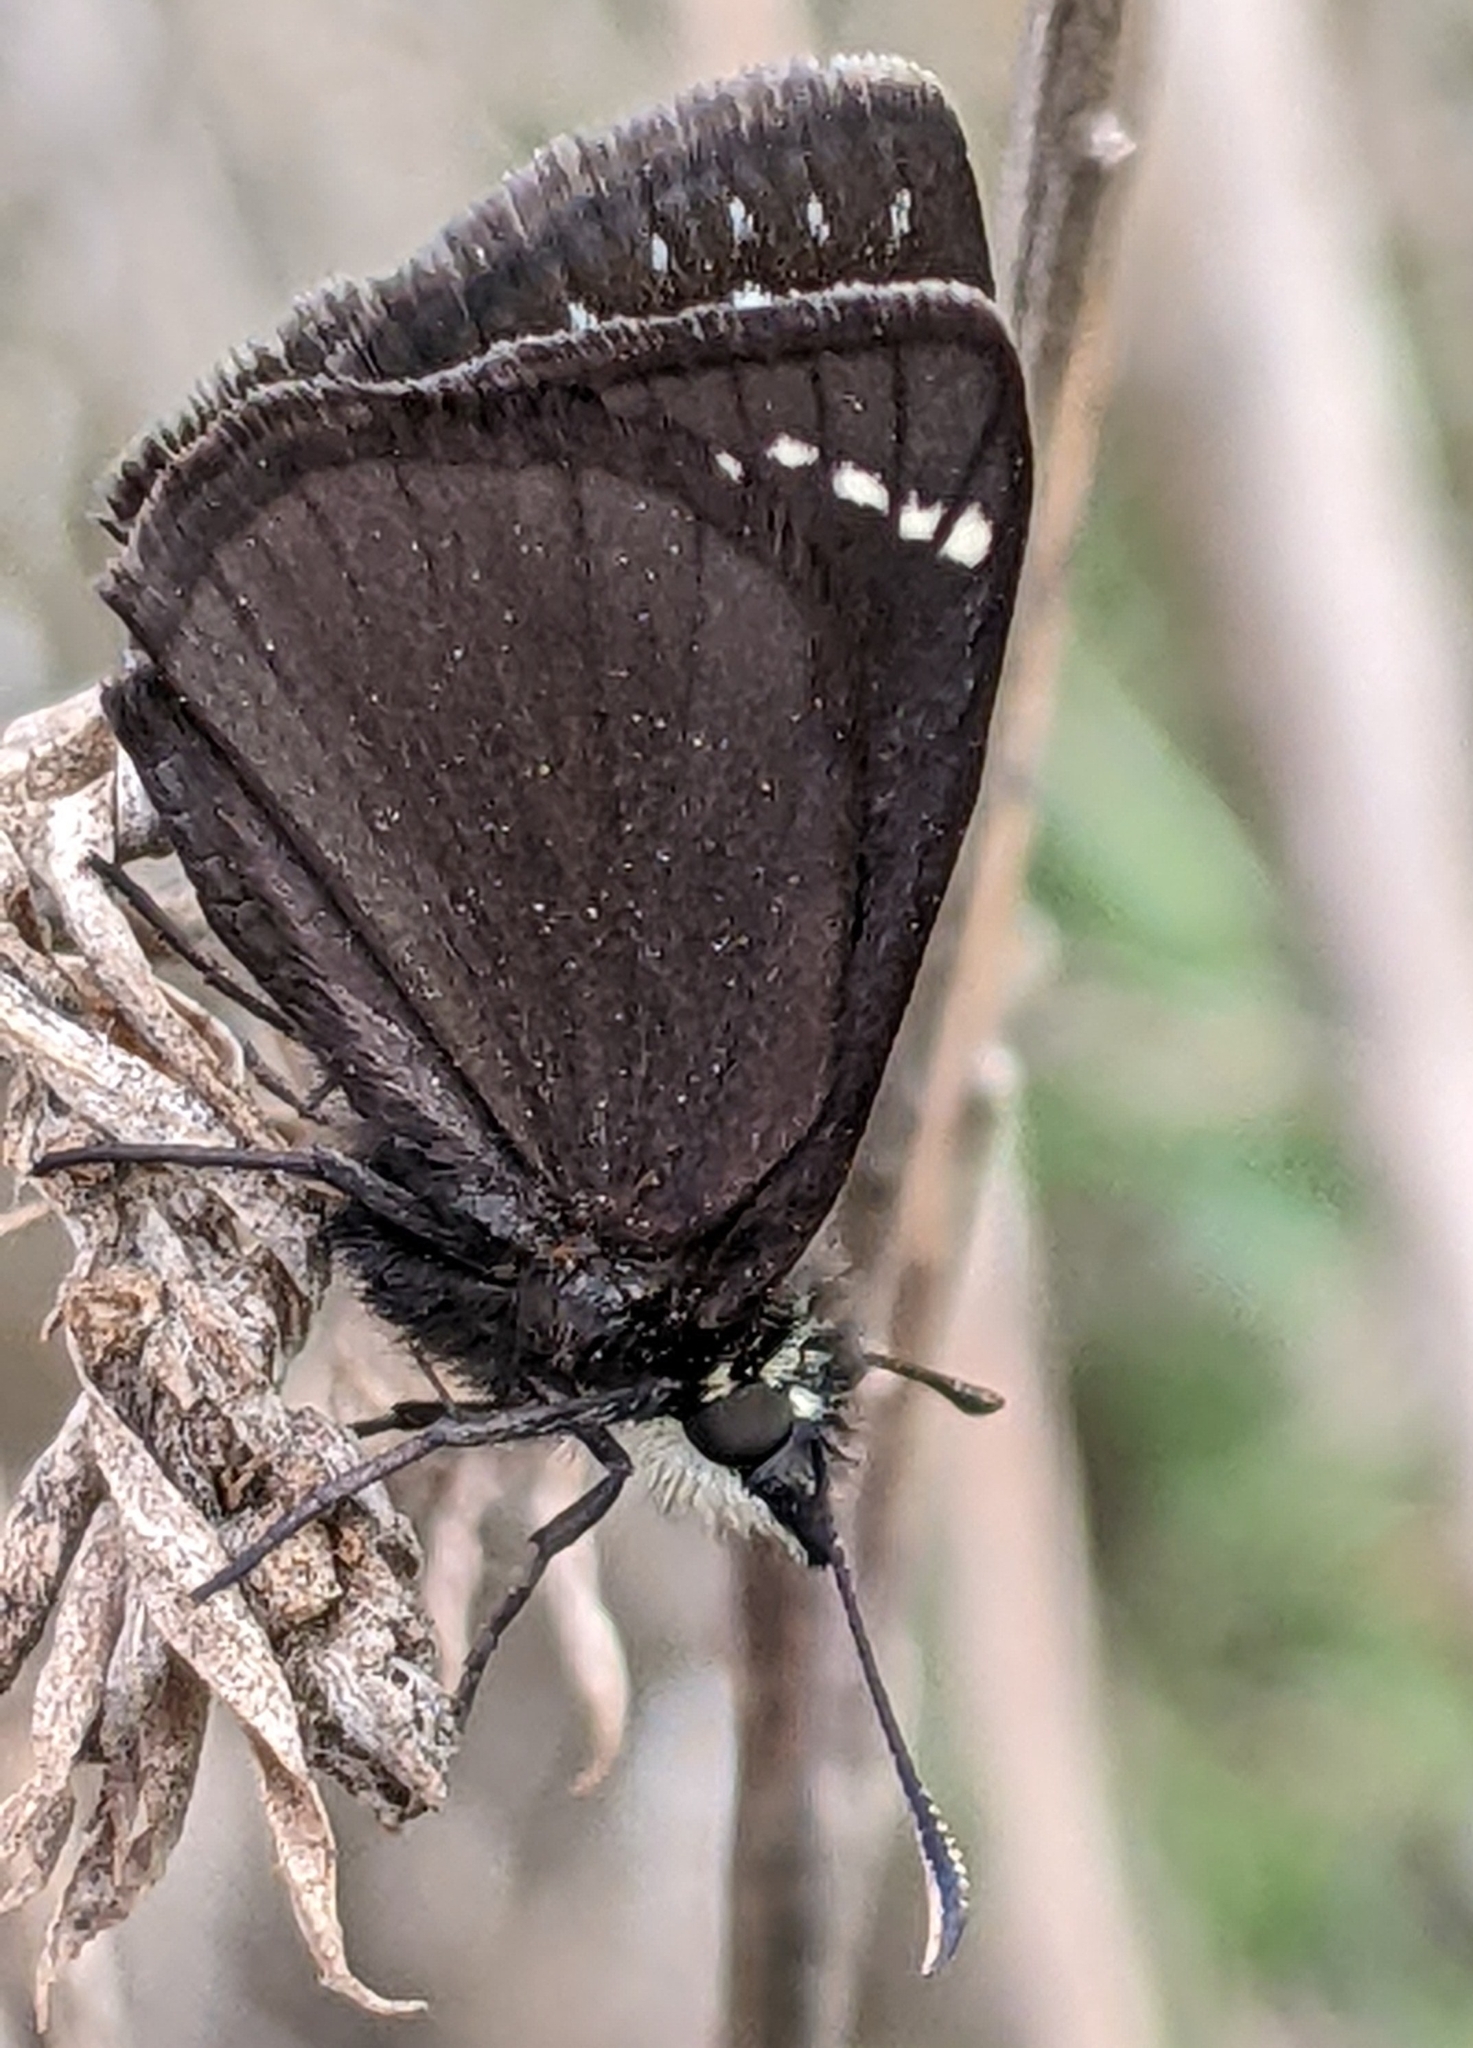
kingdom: Animalia
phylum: Arthropoda
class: Insecta
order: Lepidoptera
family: Hesperiidae
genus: Pholisora
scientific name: Pholisora catullus
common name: Common sootywing
